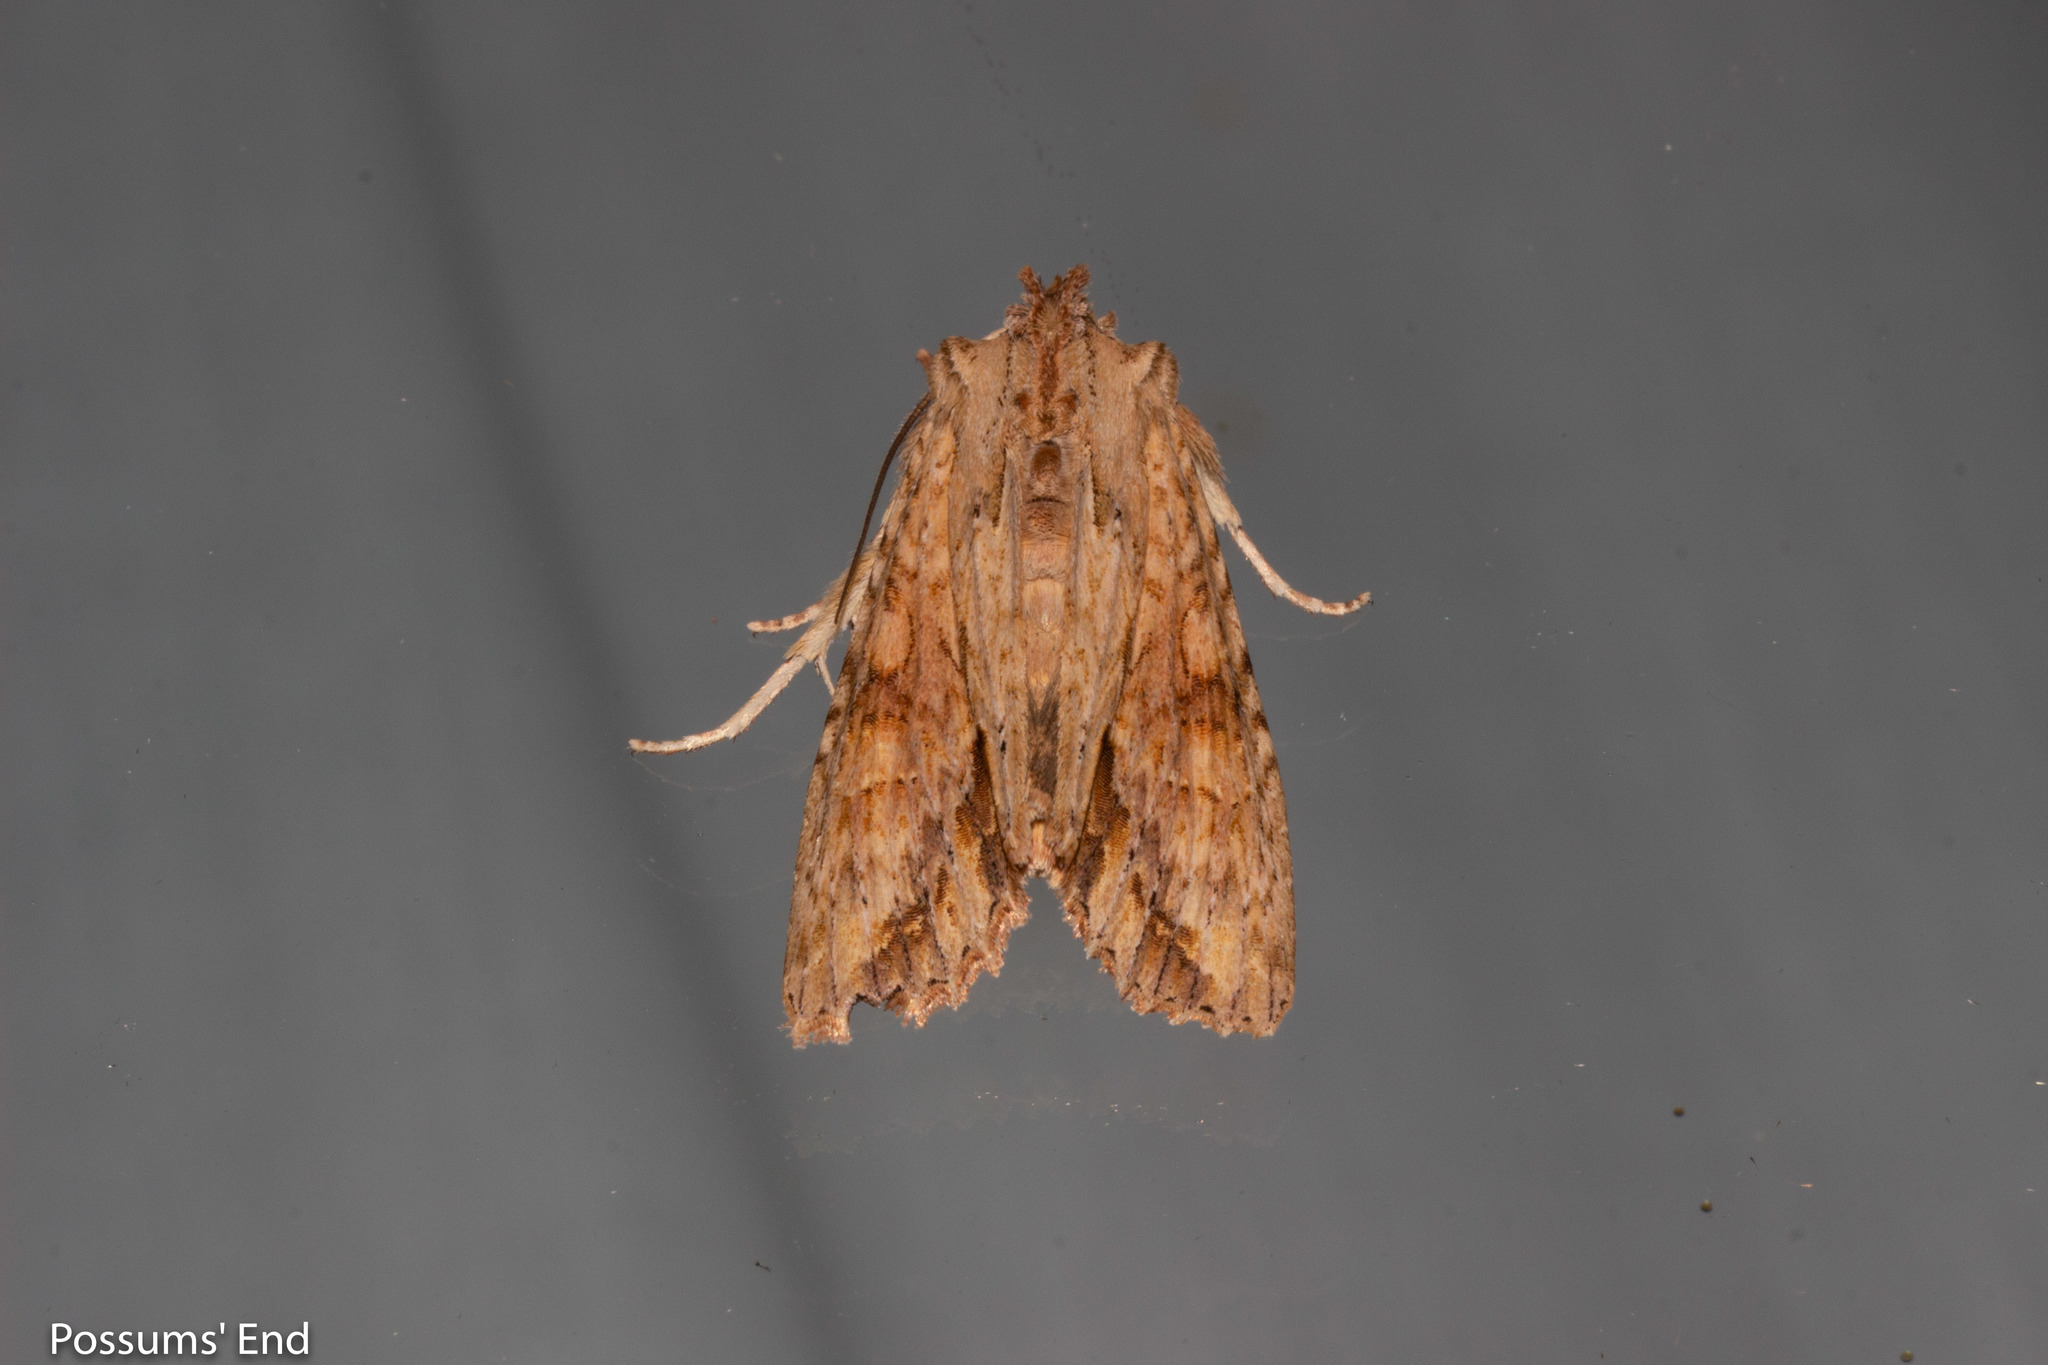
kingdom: Animalia
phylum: Arthropoda
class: Insecta
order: Lepidoptera
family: Noctuidae
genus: Ichneutica
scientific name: Ichneutica mollis
